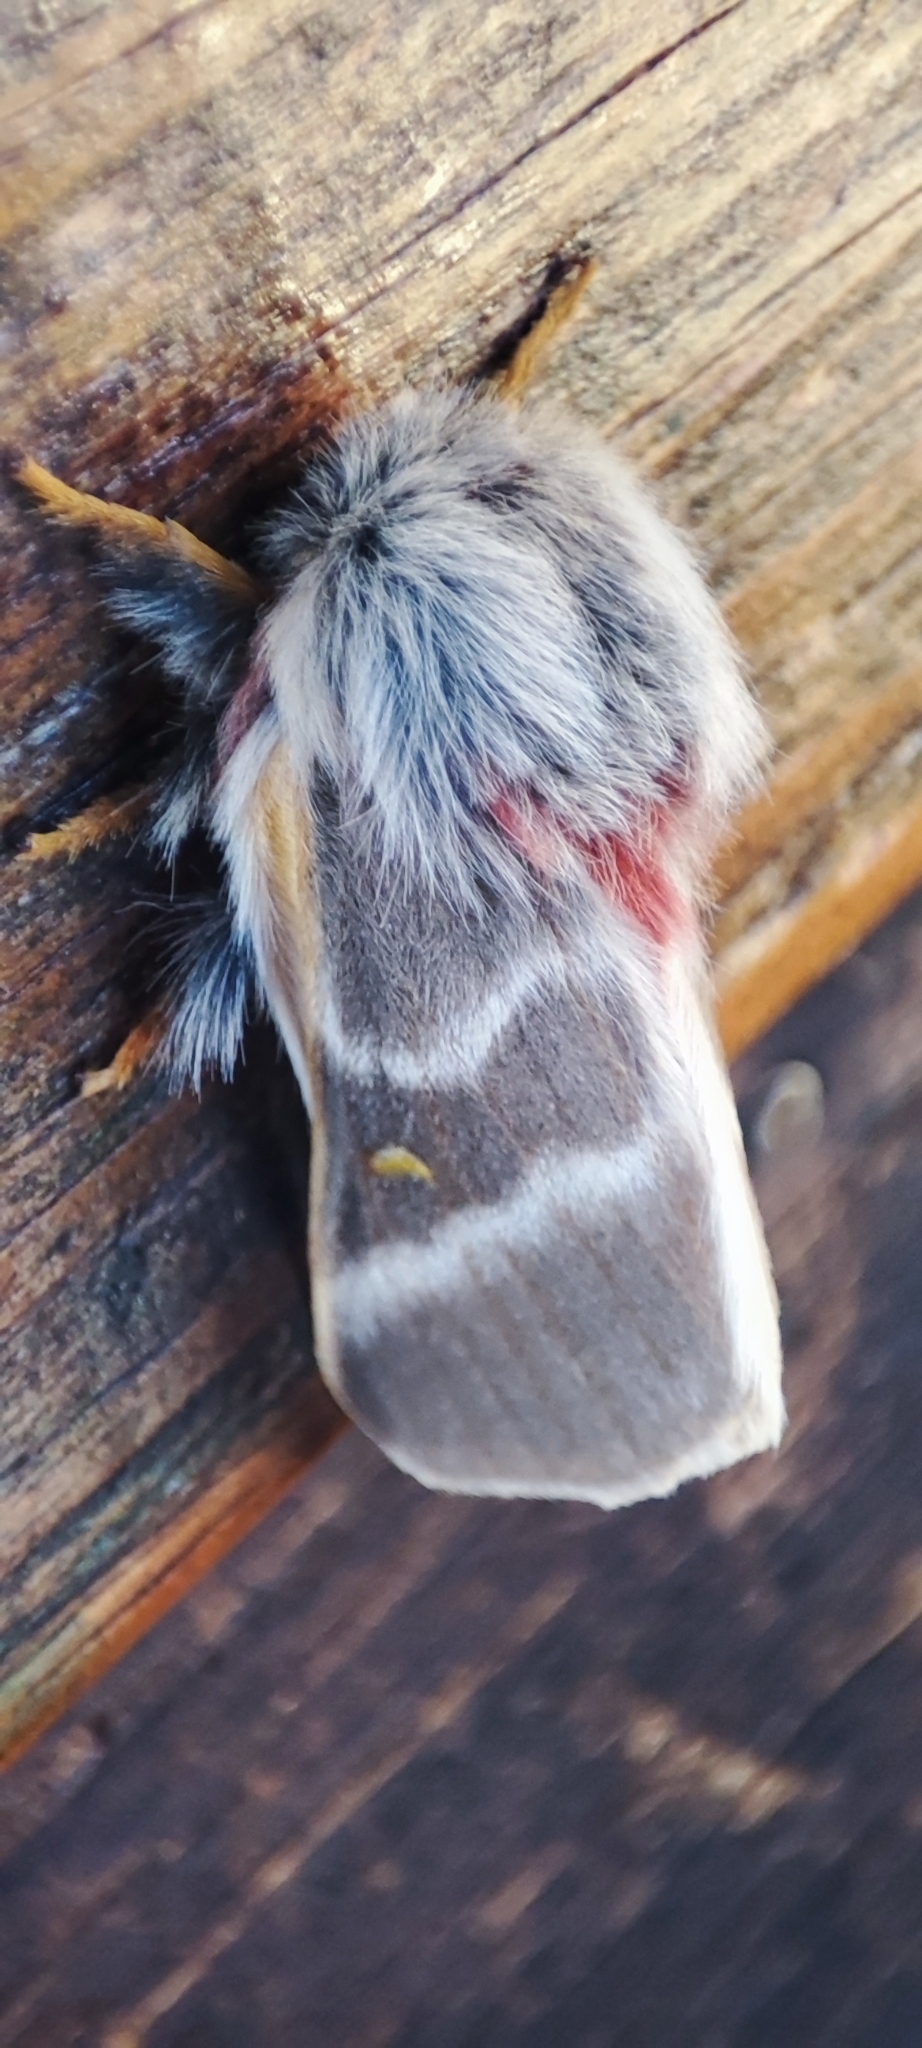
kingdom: Animalia
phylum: Arthropoda
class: Insecta
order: Lepidoptera
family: Saturniidae
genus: Hemileuca
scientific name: Hemileuca rubridorsa
